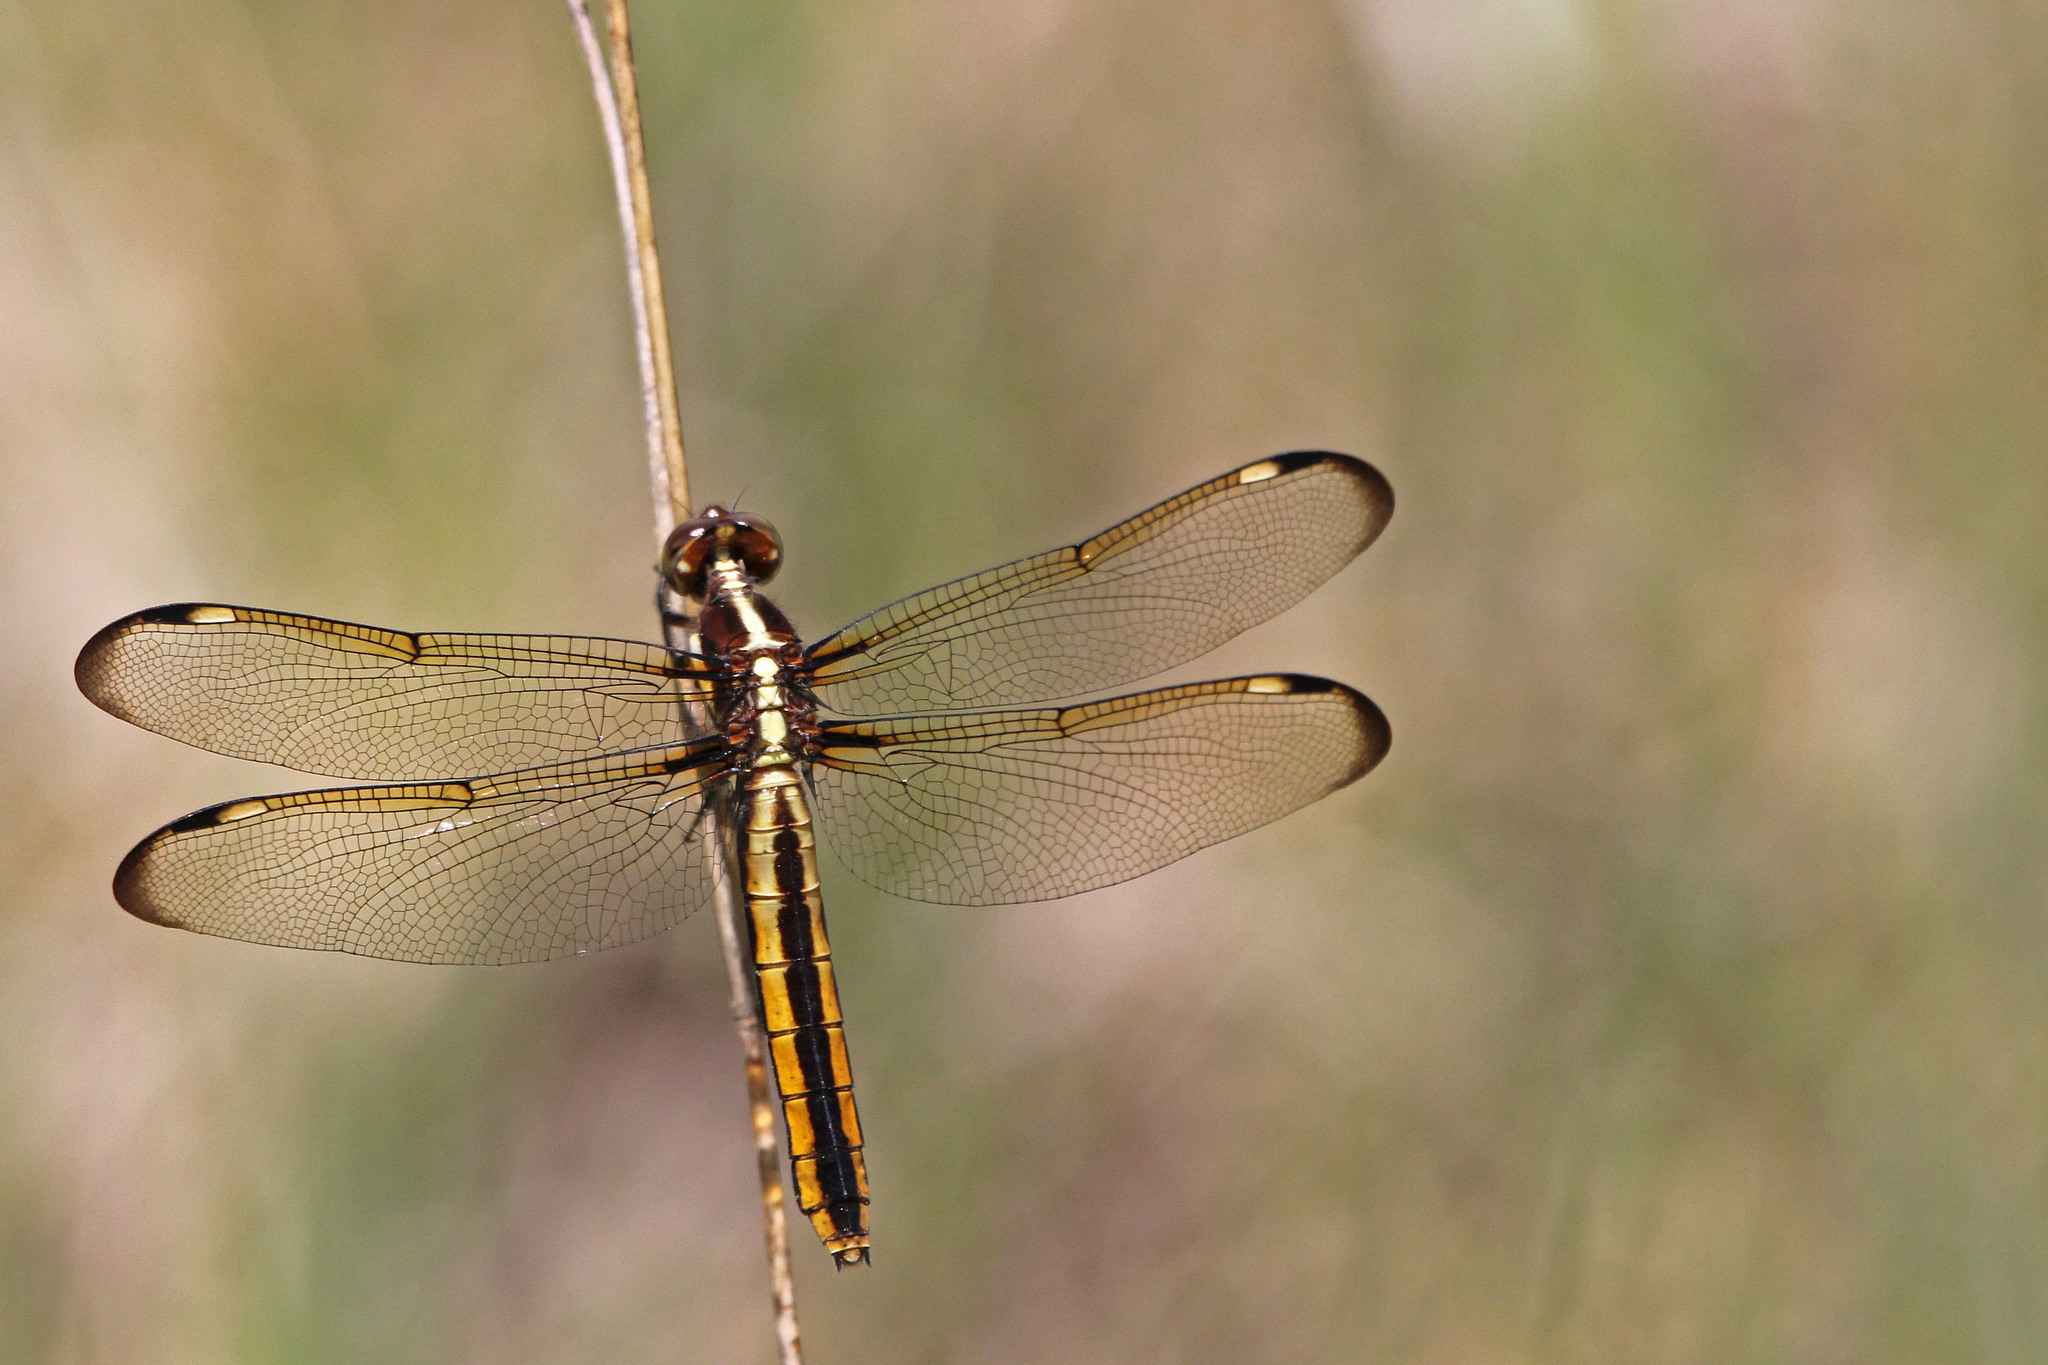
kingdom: Animalia
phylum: Arthropoda
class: Insecta
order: Odonata
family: Libellulidae
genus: Libellula
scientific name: Libellula cyanea
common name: Spangled skimmer
